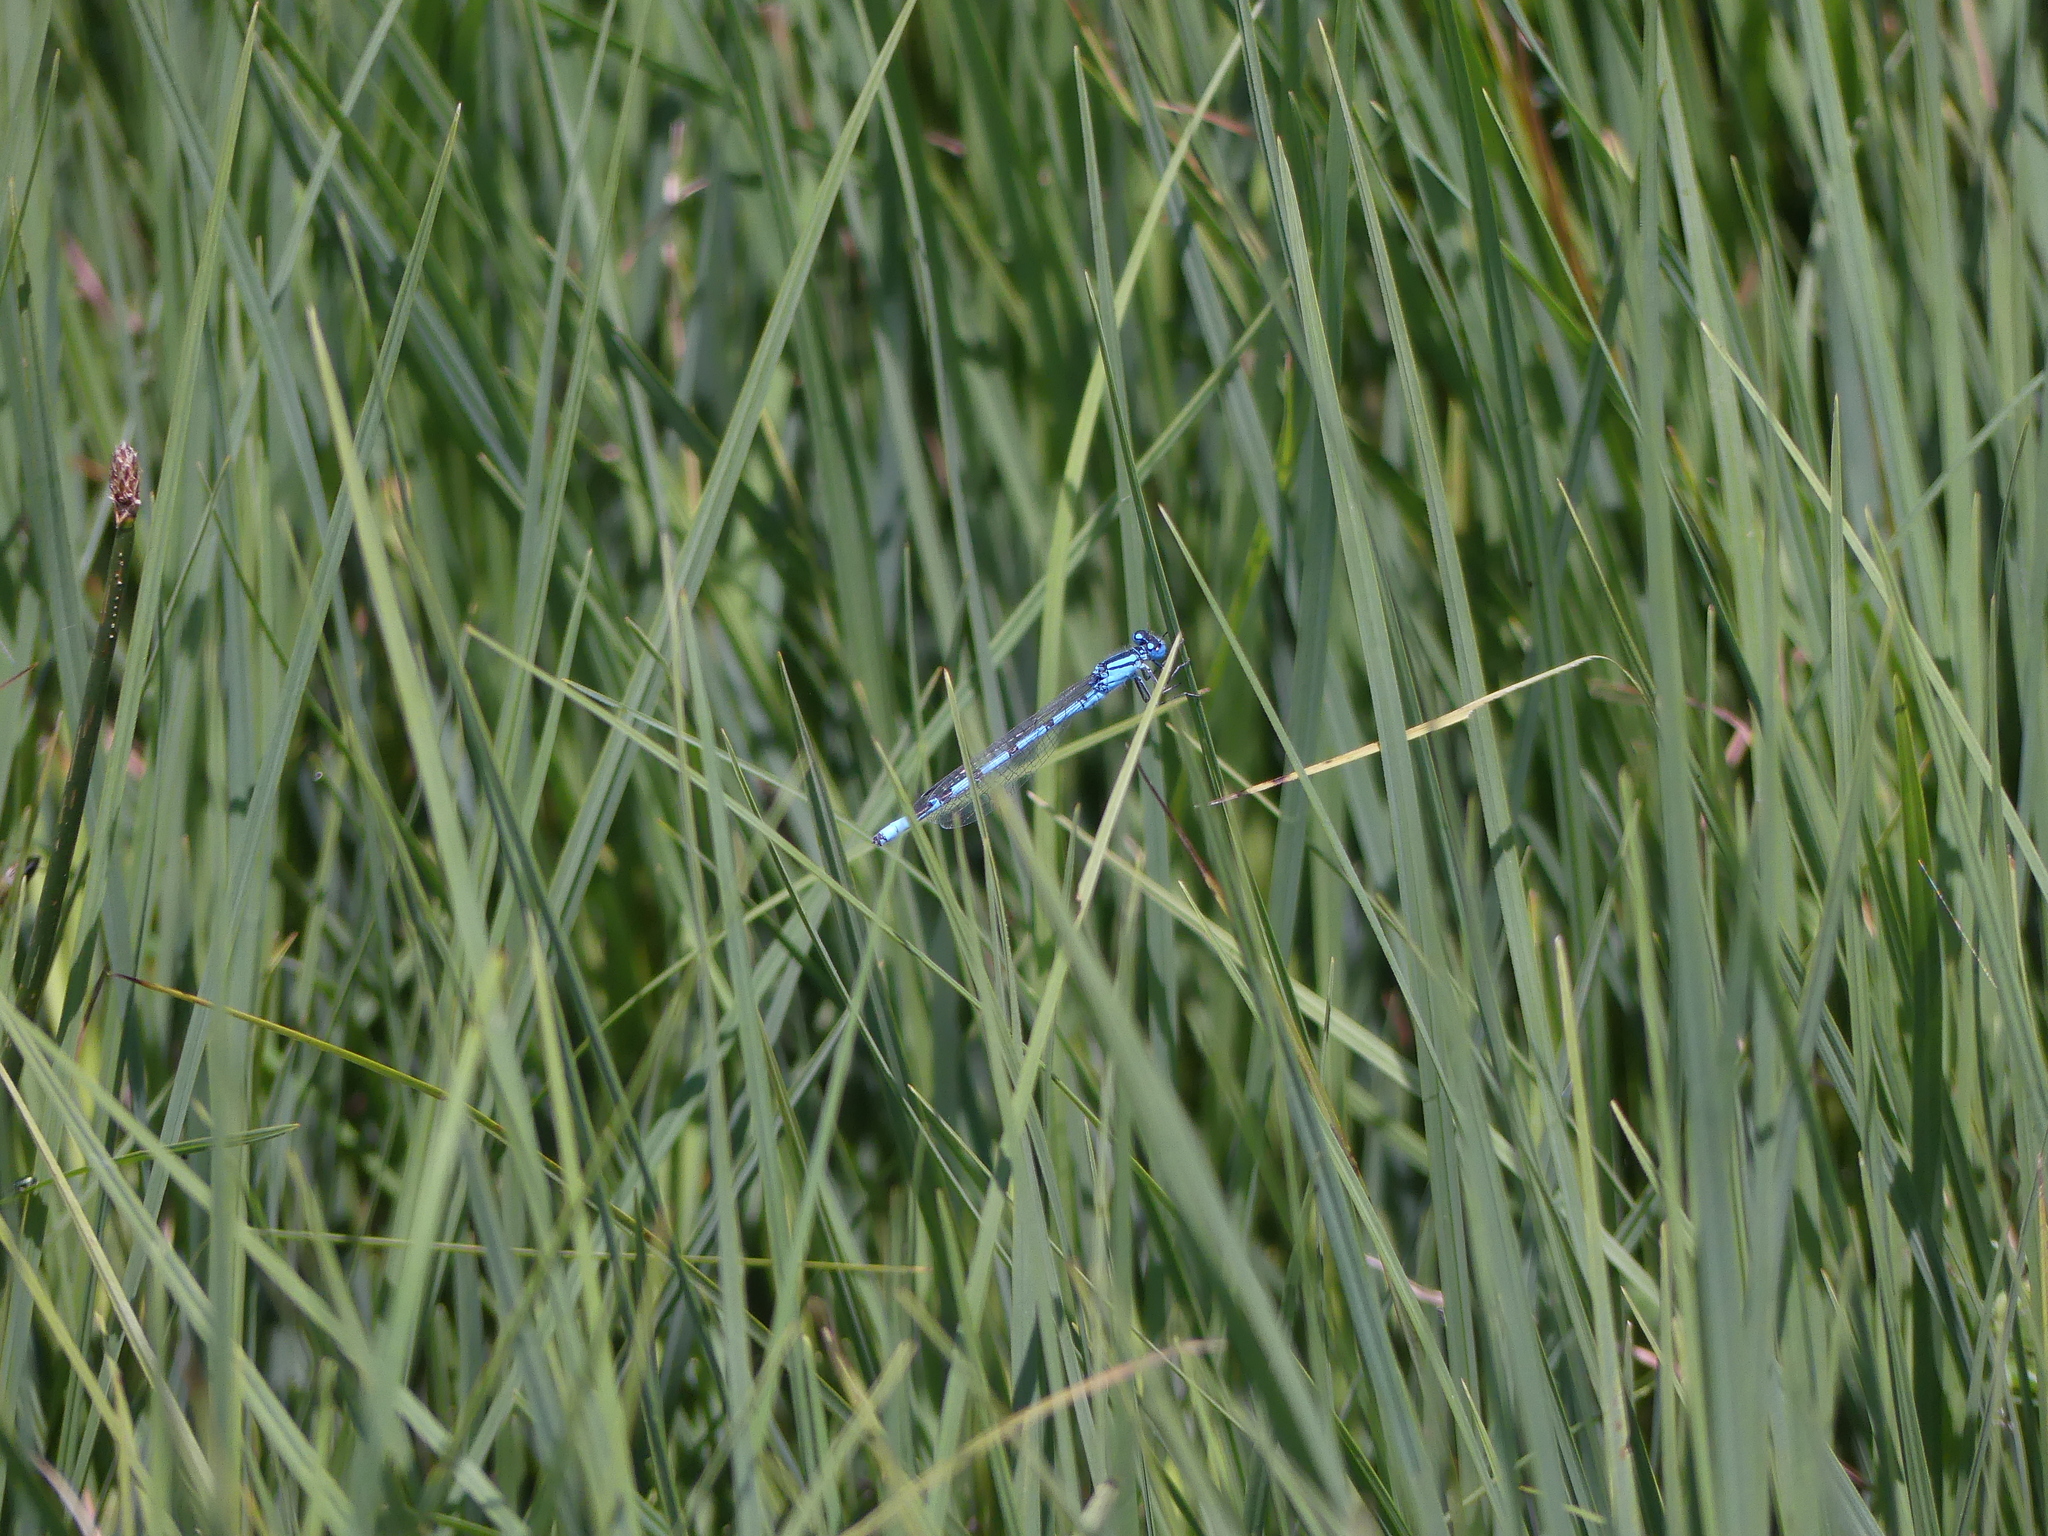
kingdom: Animalia
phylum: Arthropoda
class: Insecta
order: Odonata
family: Coenagrionidae
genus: Enallagma
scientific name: Enallagma cyathigerum
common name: Common blue damselfly
